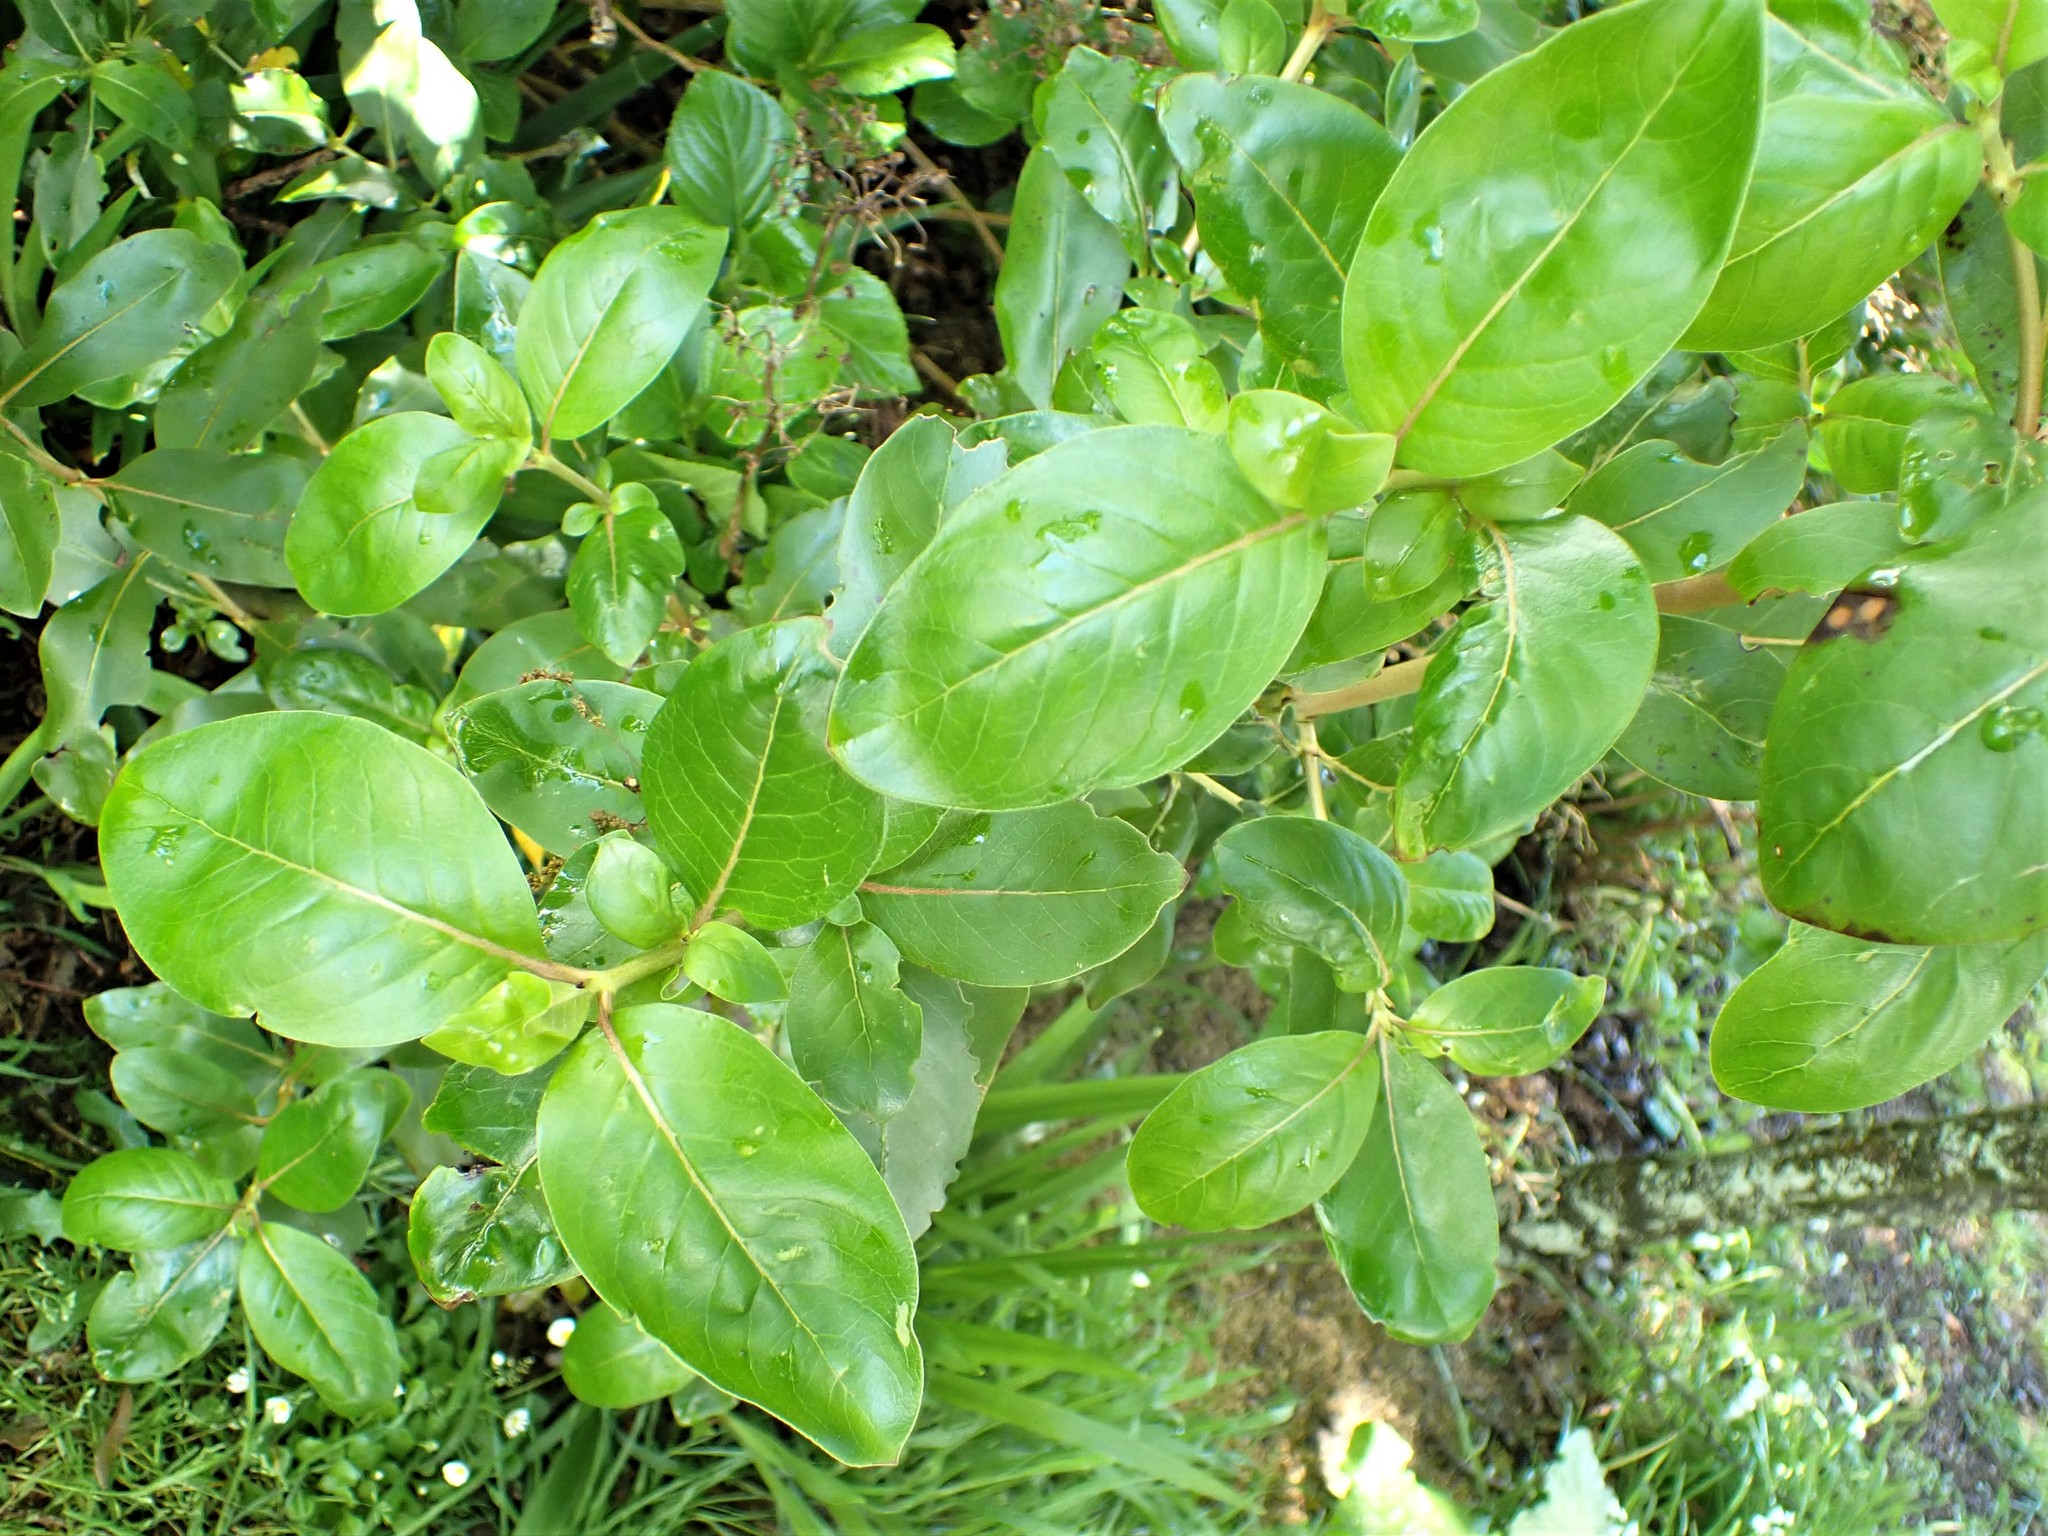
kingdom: Plantae
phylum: Tracheophyta
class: Magnoliopsida
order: Gentianales
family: Rubiaceae
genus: Coprosma
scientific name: Coprosma robusta
